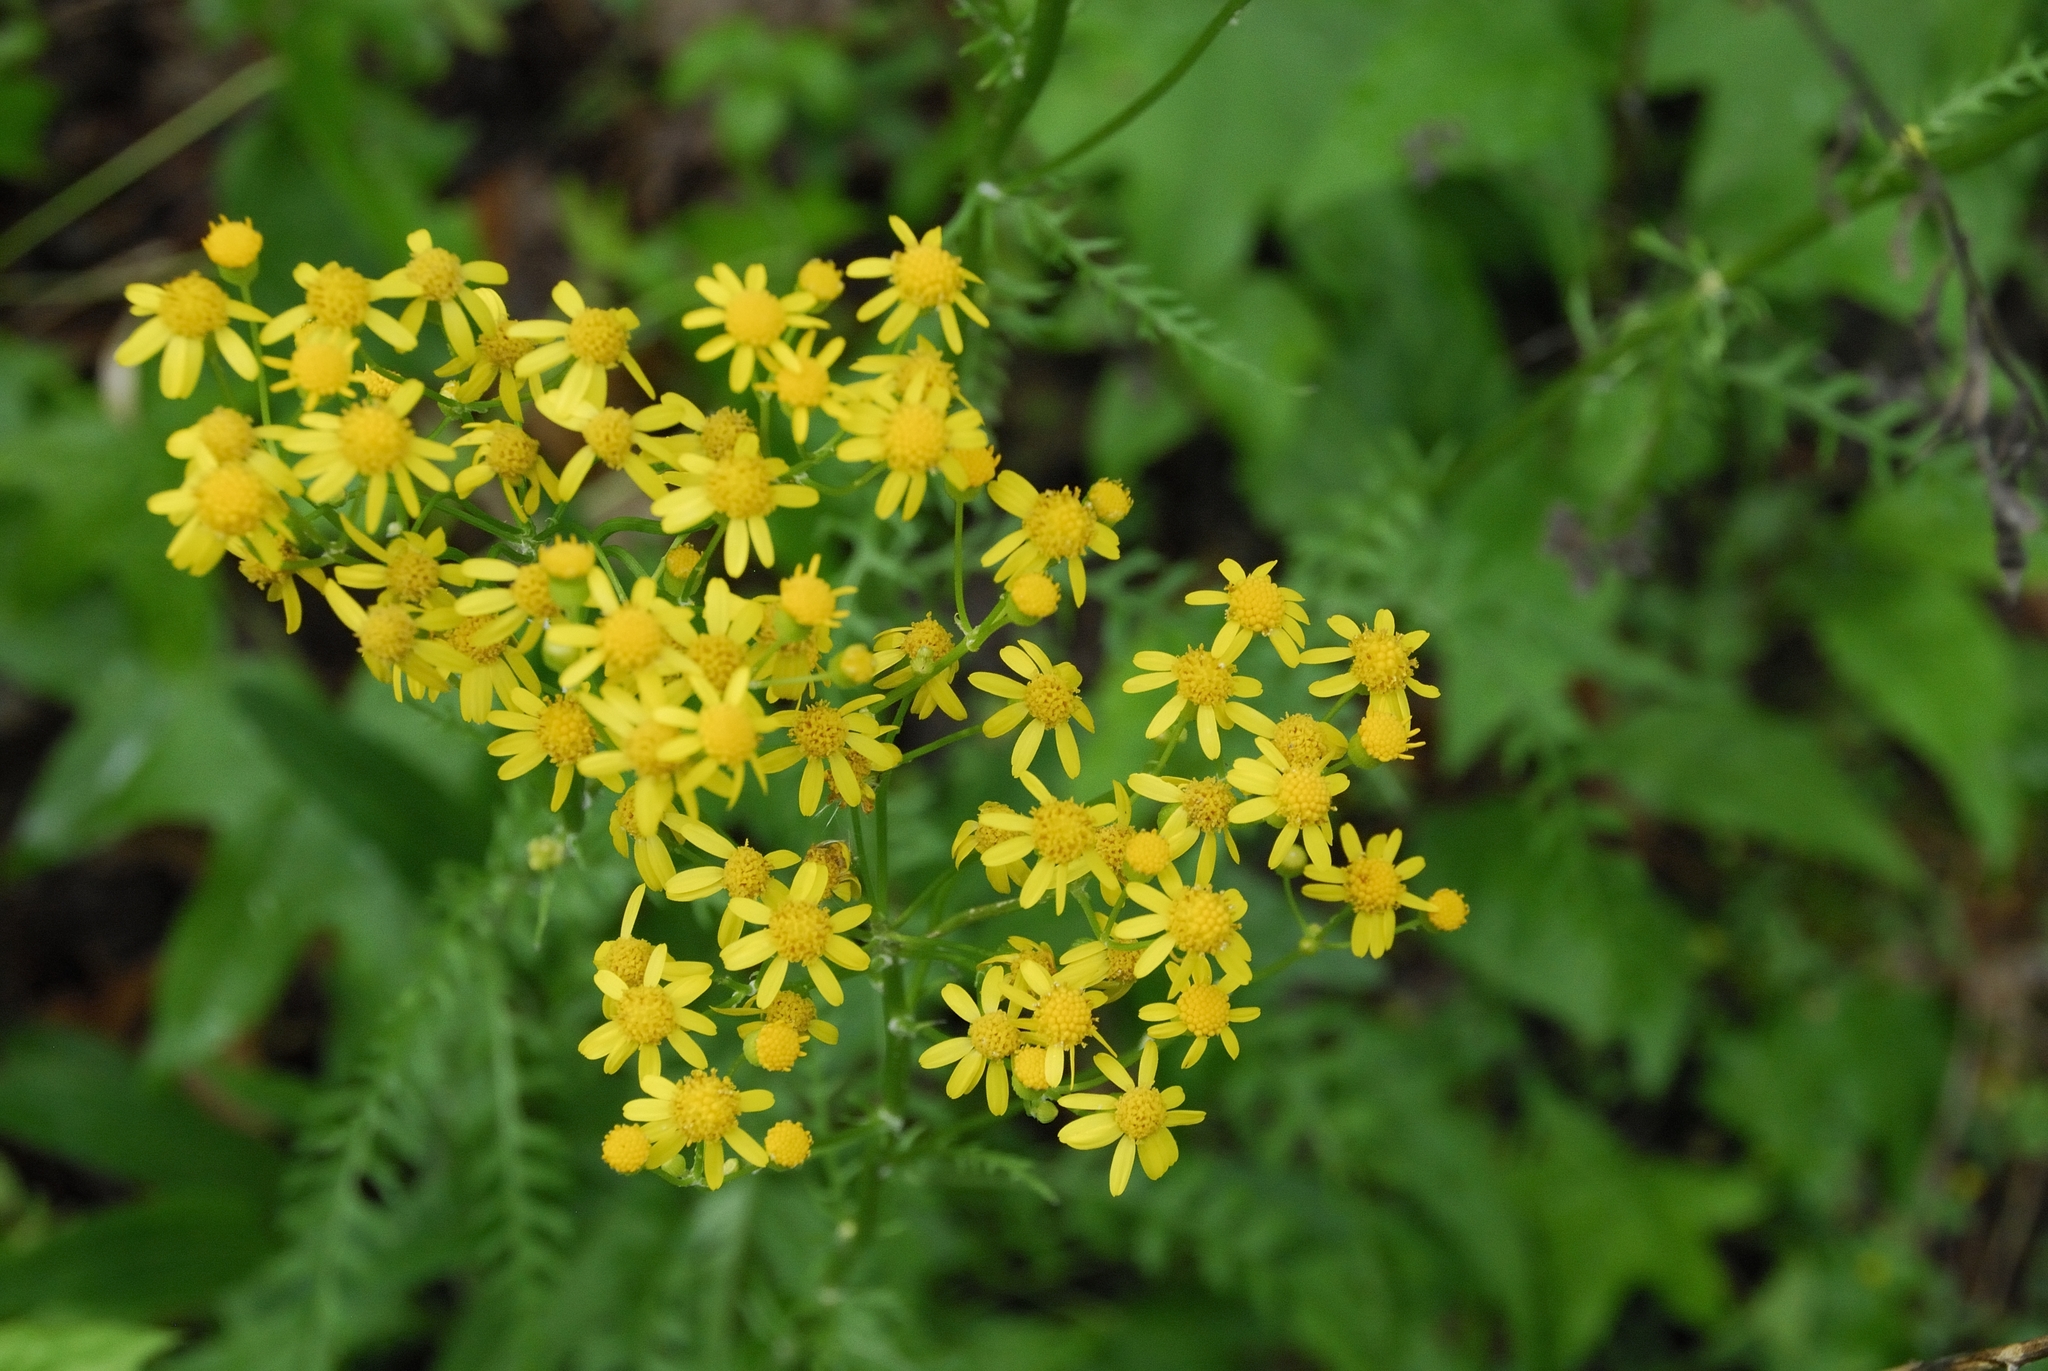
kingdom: Plantae
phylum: Tracheophyta
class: Magnoliopsida
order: Asterales
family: Asteraceae
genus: Packera
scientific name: Packera anonyma
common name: Small ragwort
